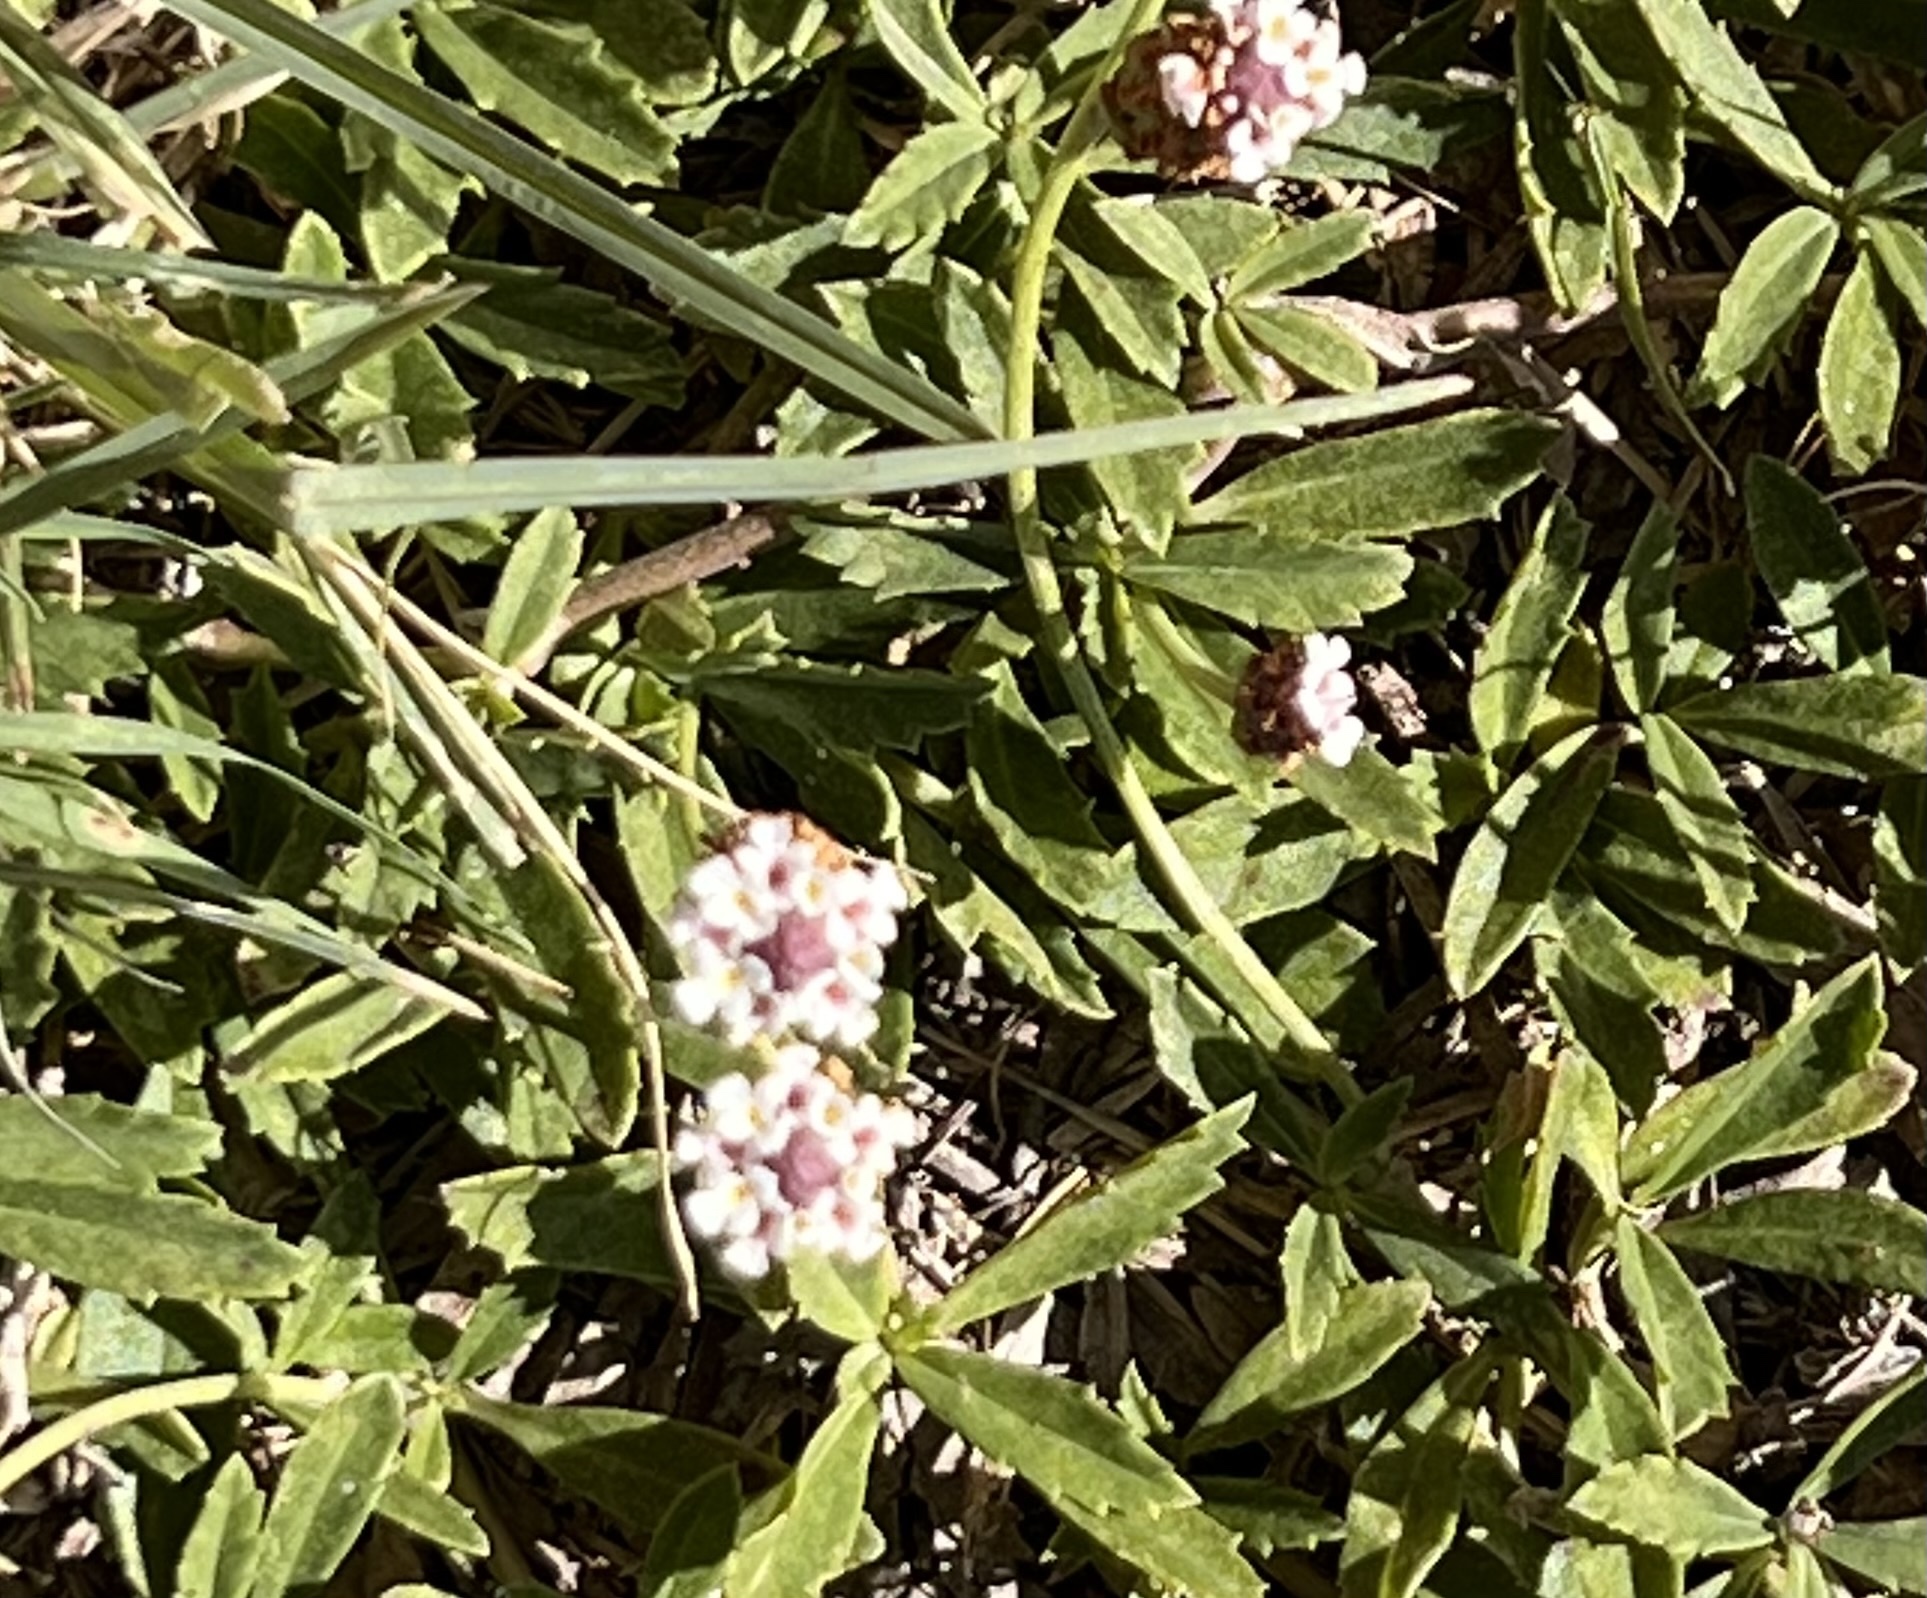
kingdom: Plantae
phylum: Tracheophyta
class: Magnoliopsida
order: Lamiales
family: Verbenaceae
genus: Phyla
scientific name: Phyla nodiflora
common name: Frogfruit
